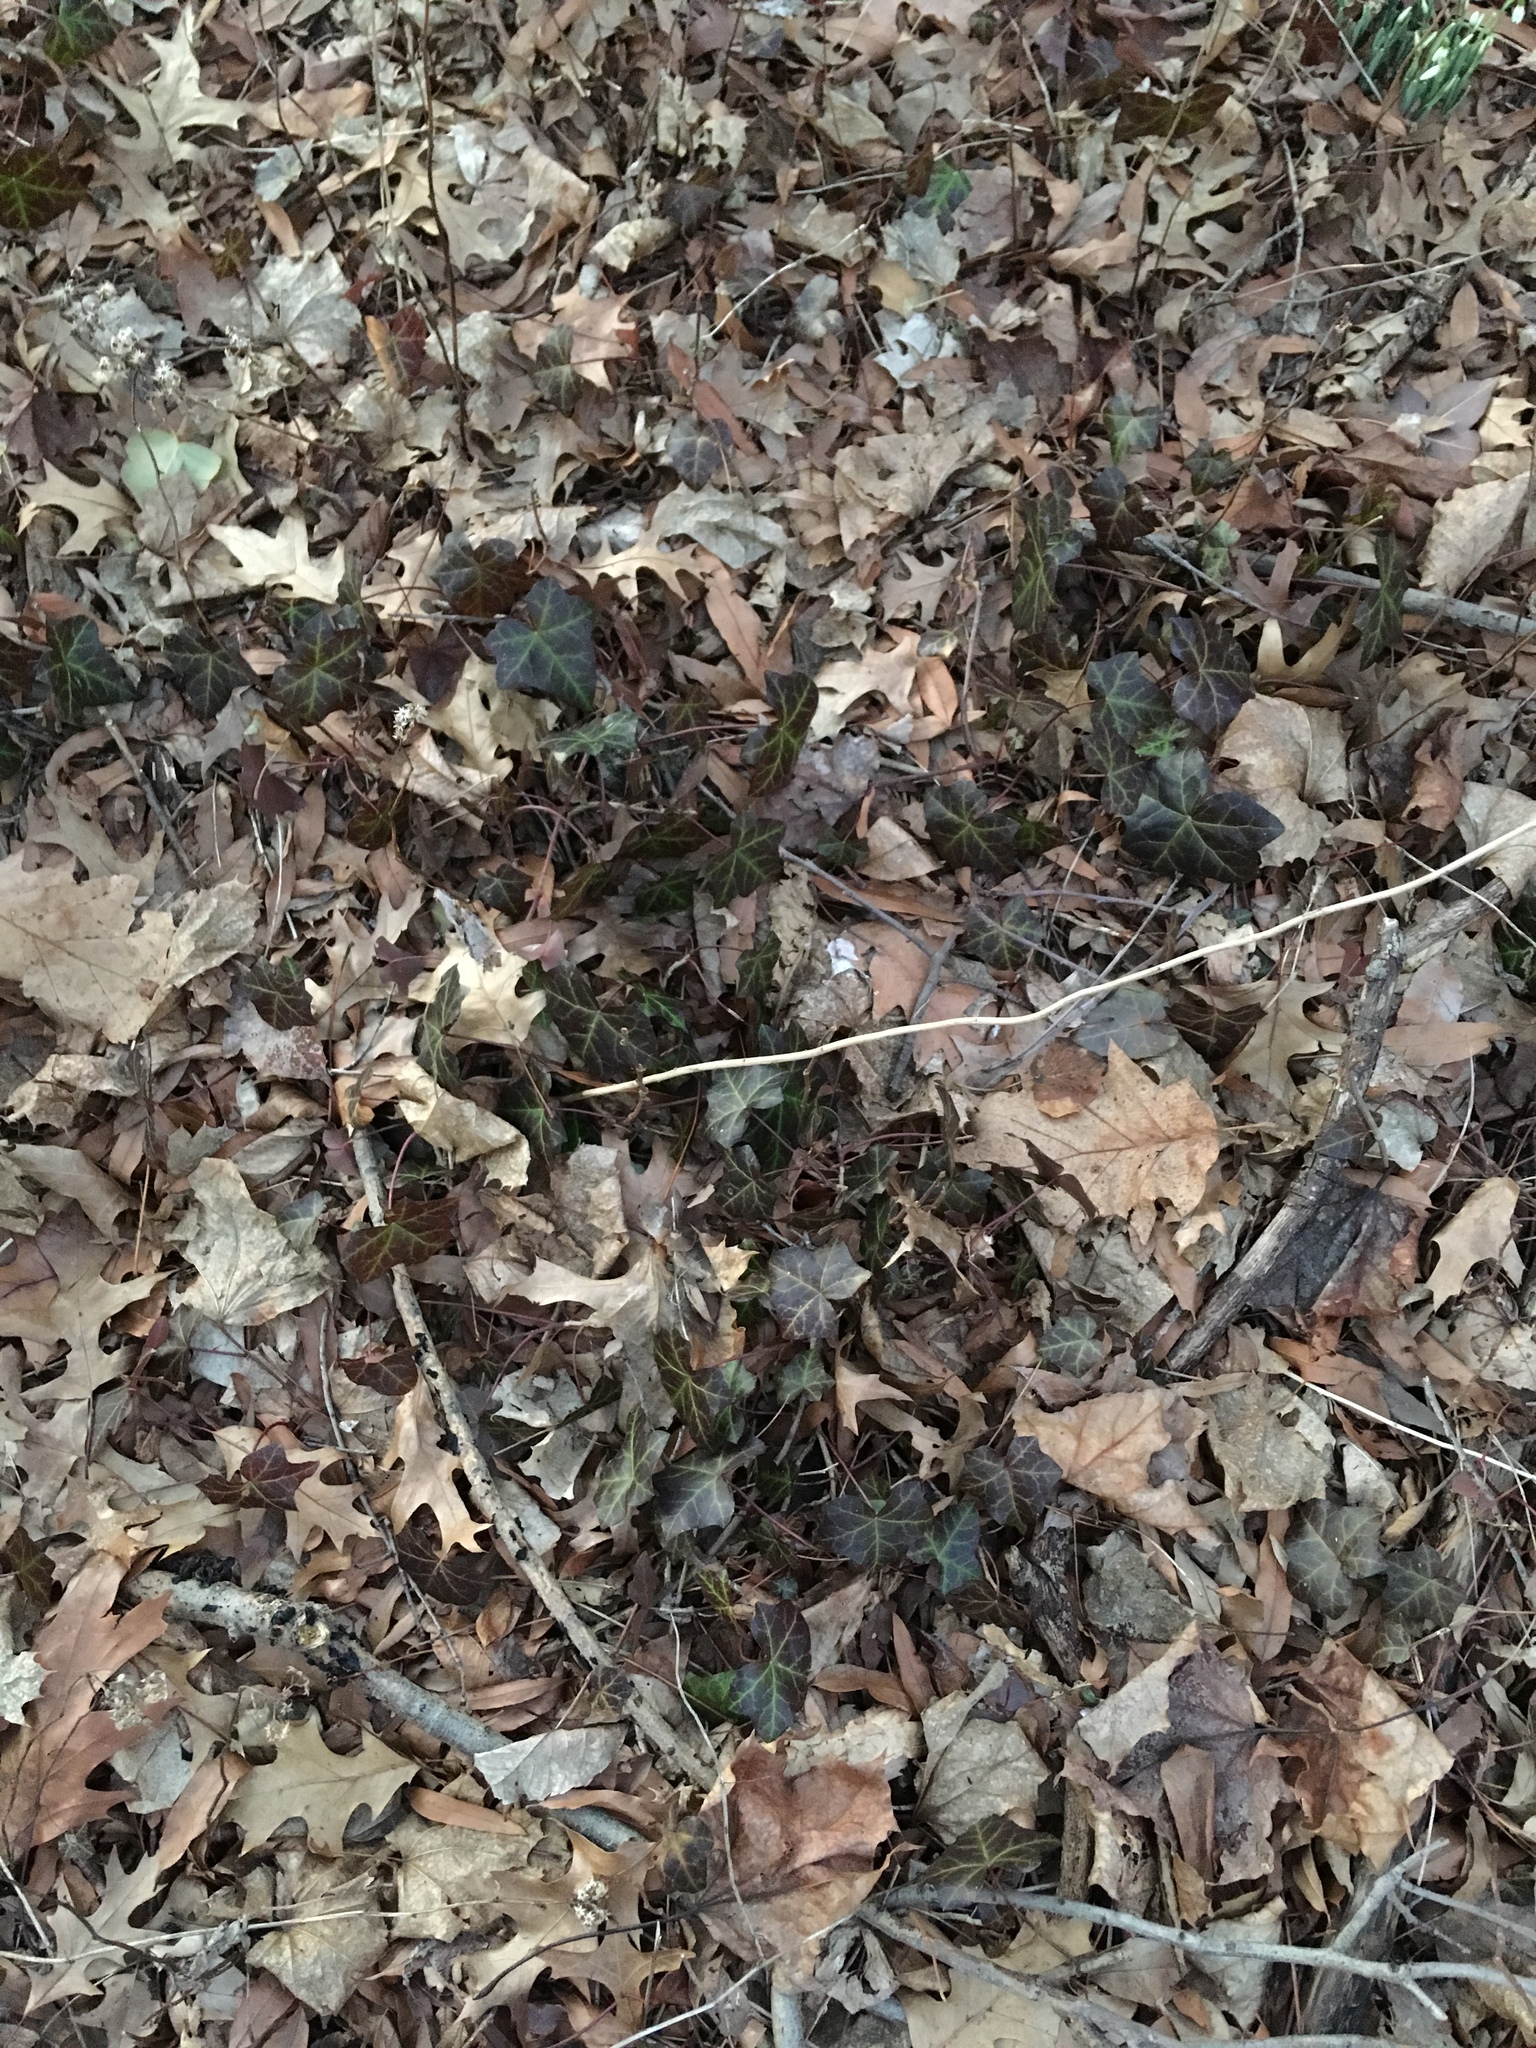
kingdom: Plantae
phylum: Tracheophyta
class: Magnoliopsida
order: Apiales
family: Araliaceae
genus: Hedera
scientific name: Hedera helix
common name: Ivy
